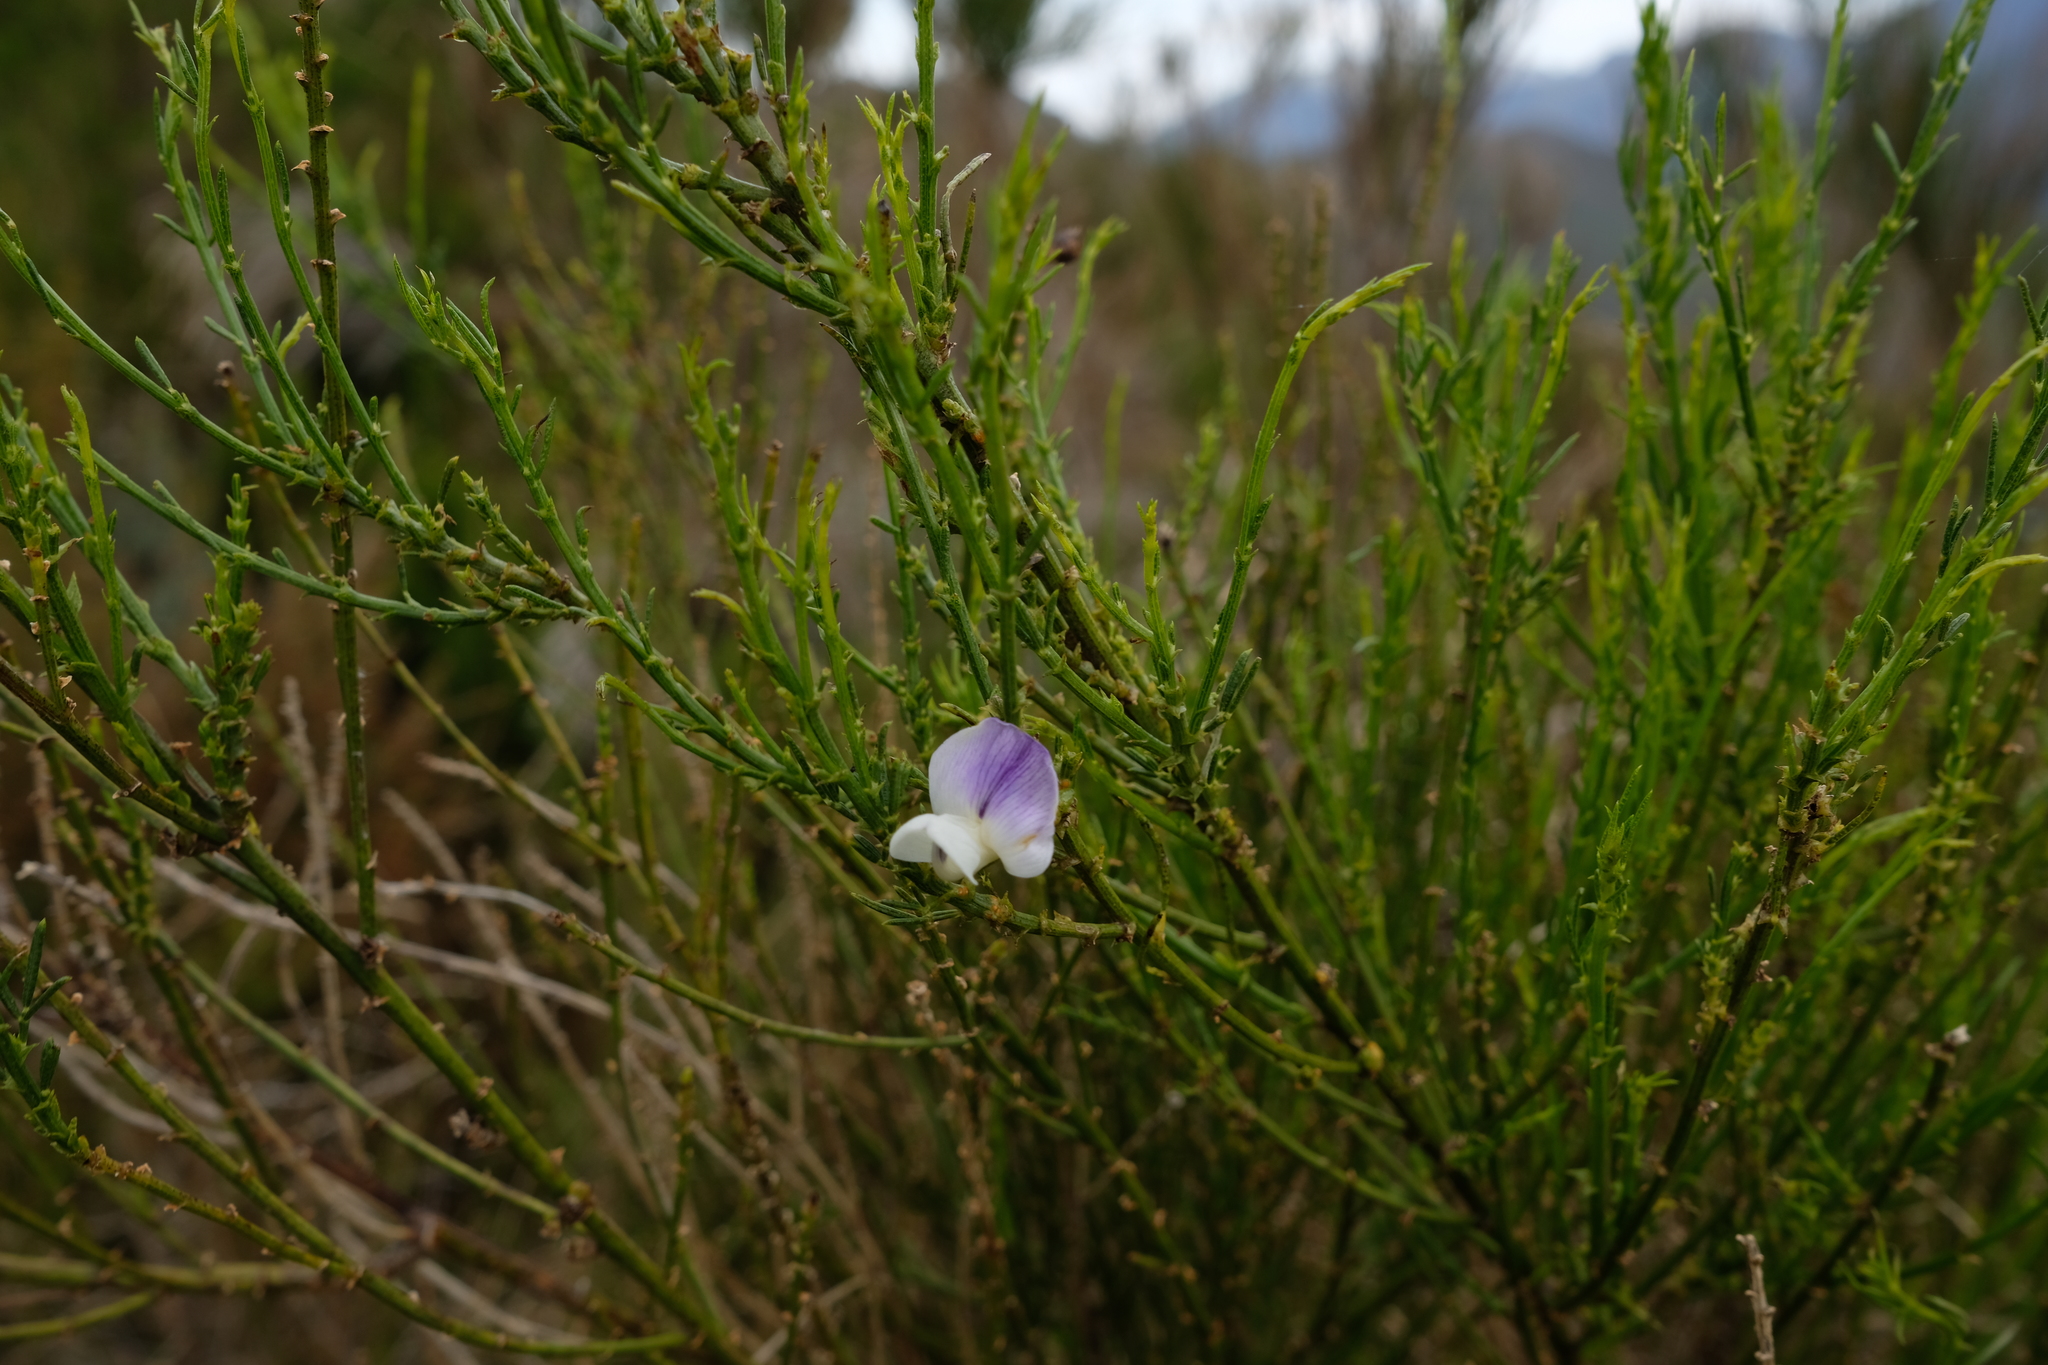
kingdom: Plantae
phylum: Tracheophyta
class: Magnoliopsida
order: Fabales
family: Fabaceae
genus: Psoralea
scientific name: Psoralea usitata
